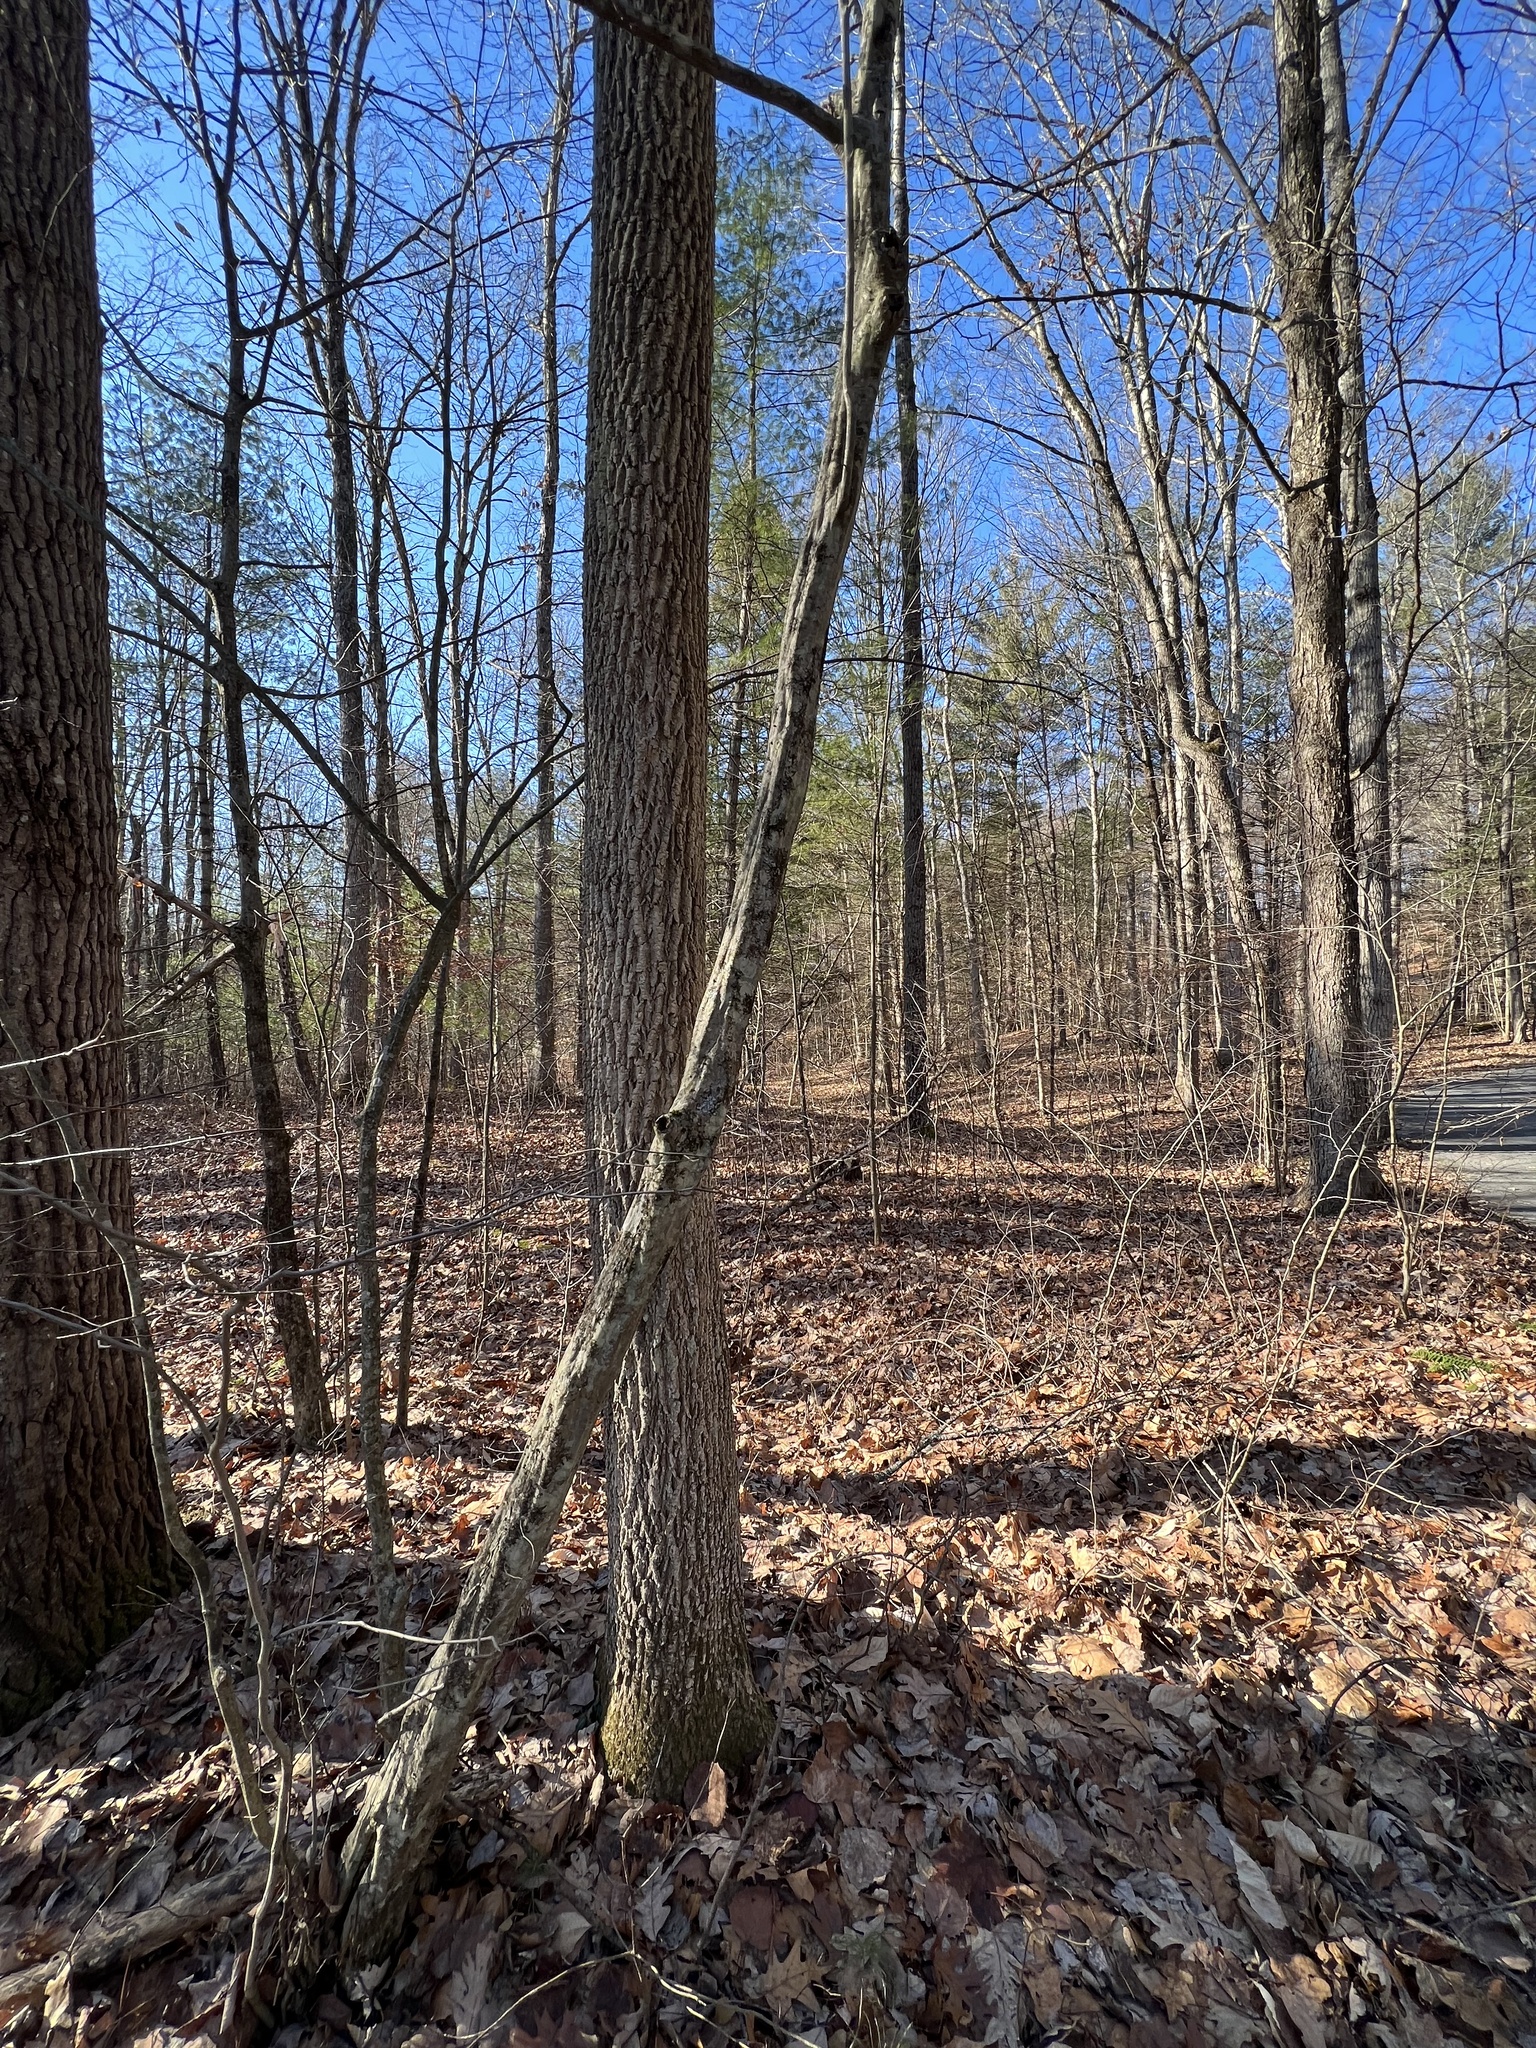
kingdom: Plantae
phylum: Tracheophyta
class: Magnoliopsida
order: Fagales
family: Betulaceae
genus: Carpinus
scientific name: Carpinus caroliniana
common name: American hornbeam
